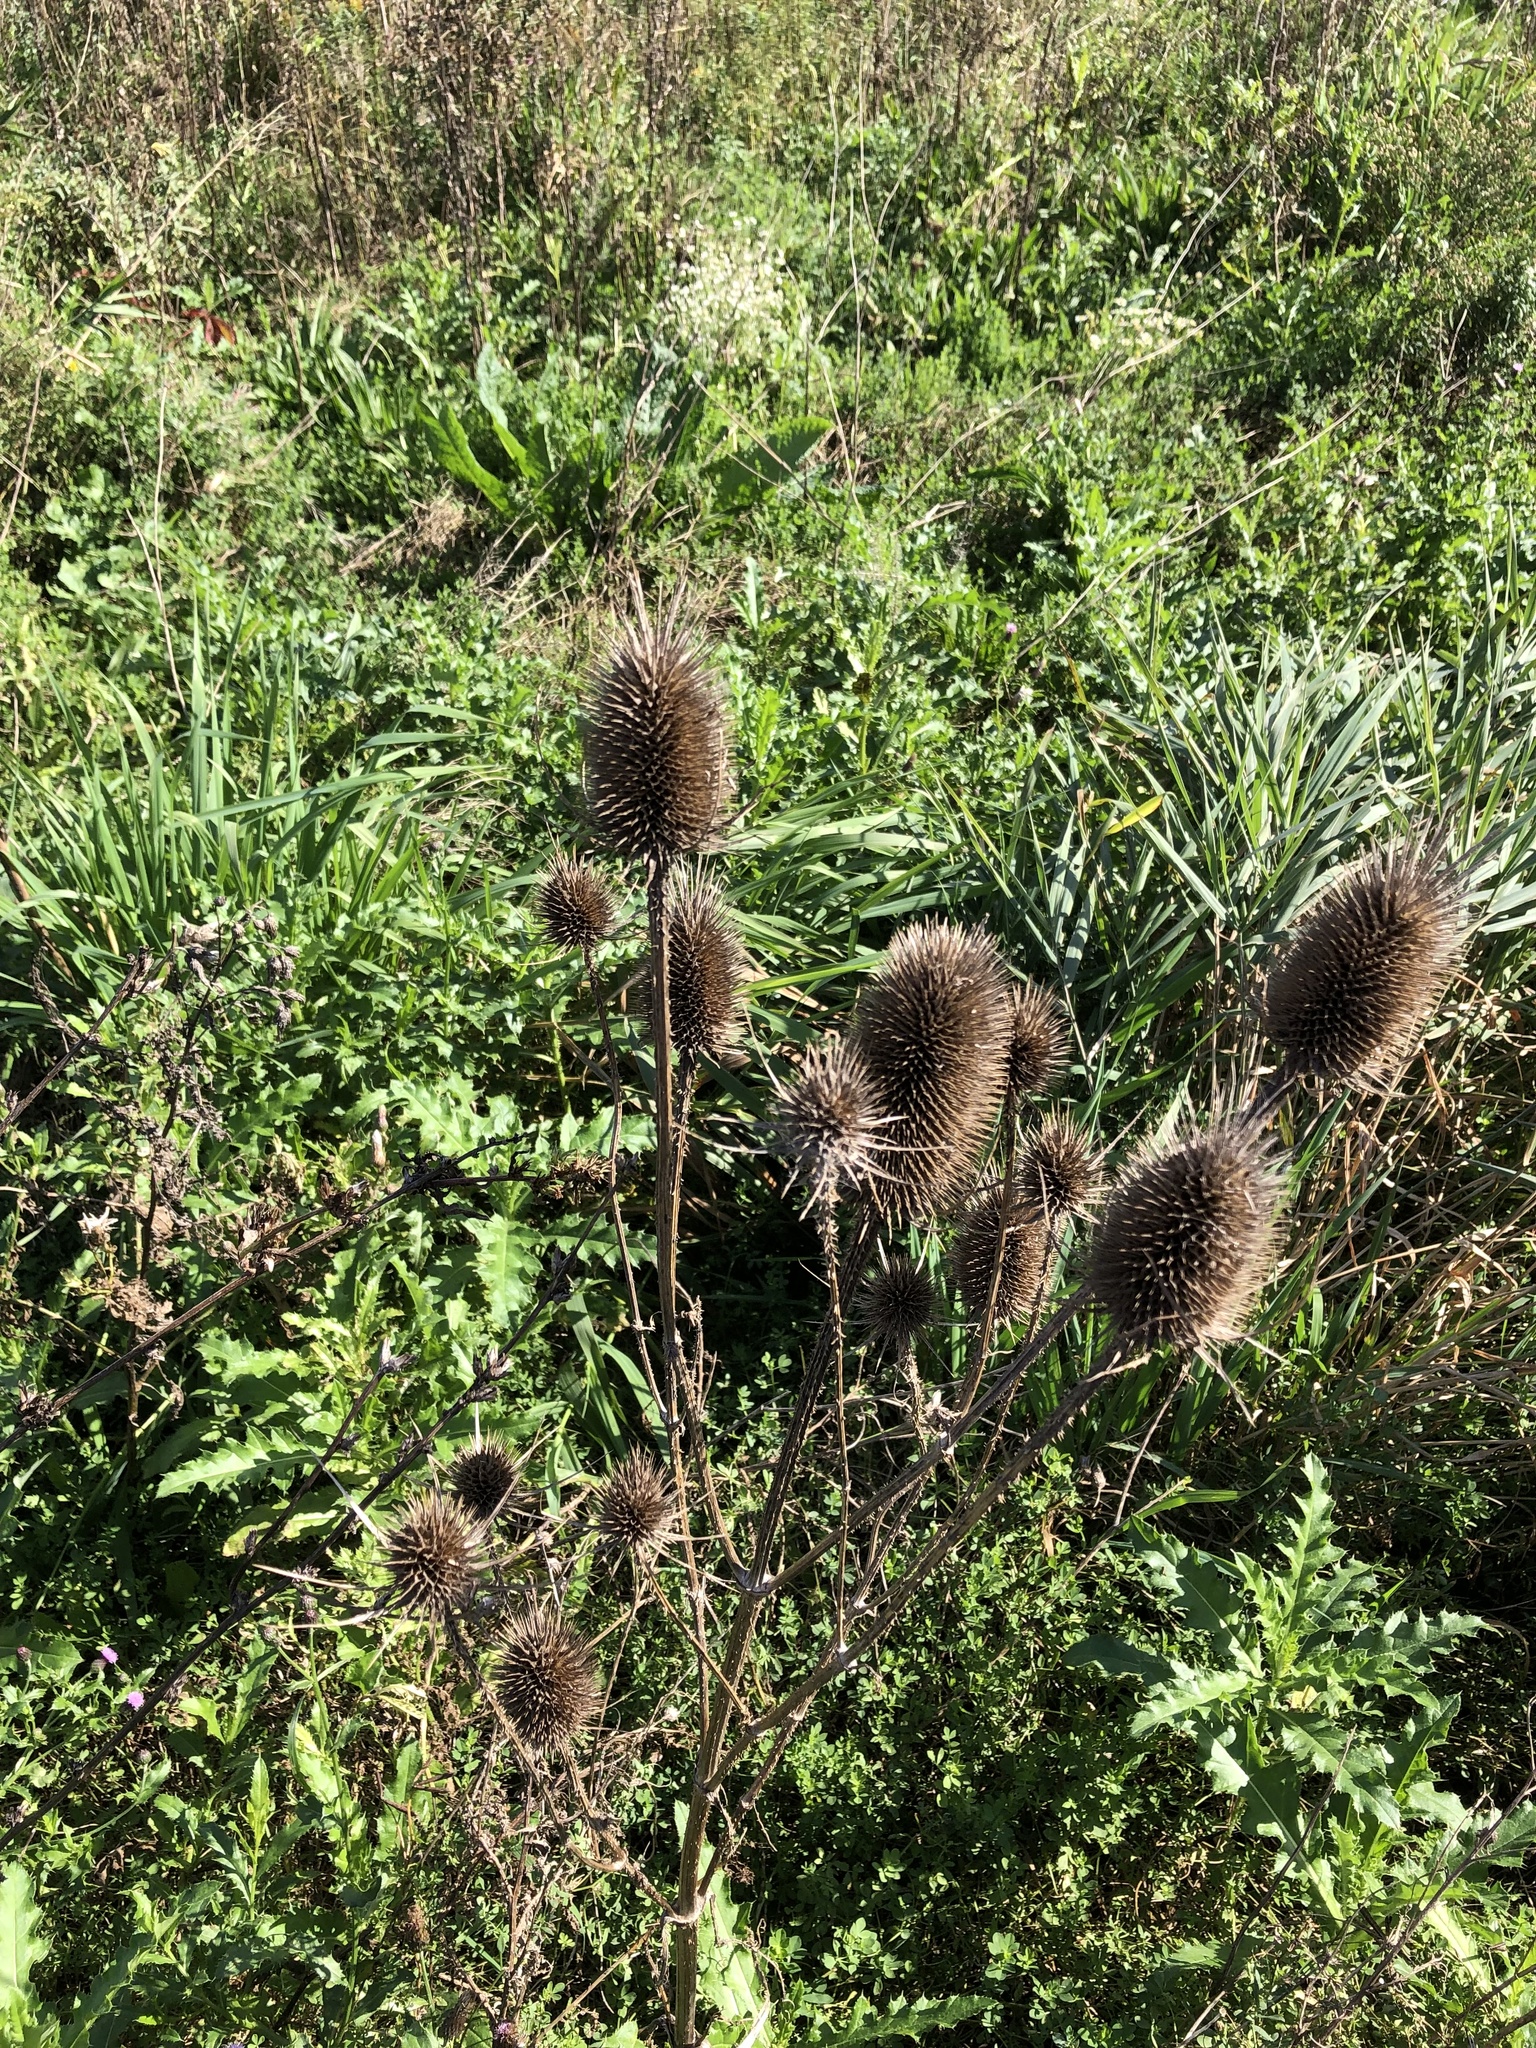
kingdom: Plantae
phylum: Tracheophyta
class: Magnoliopsida
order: Dipsacales
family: Caprifoliaceae
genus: Dipsacus
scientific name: Dipsacus fullonum
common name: Teasel
